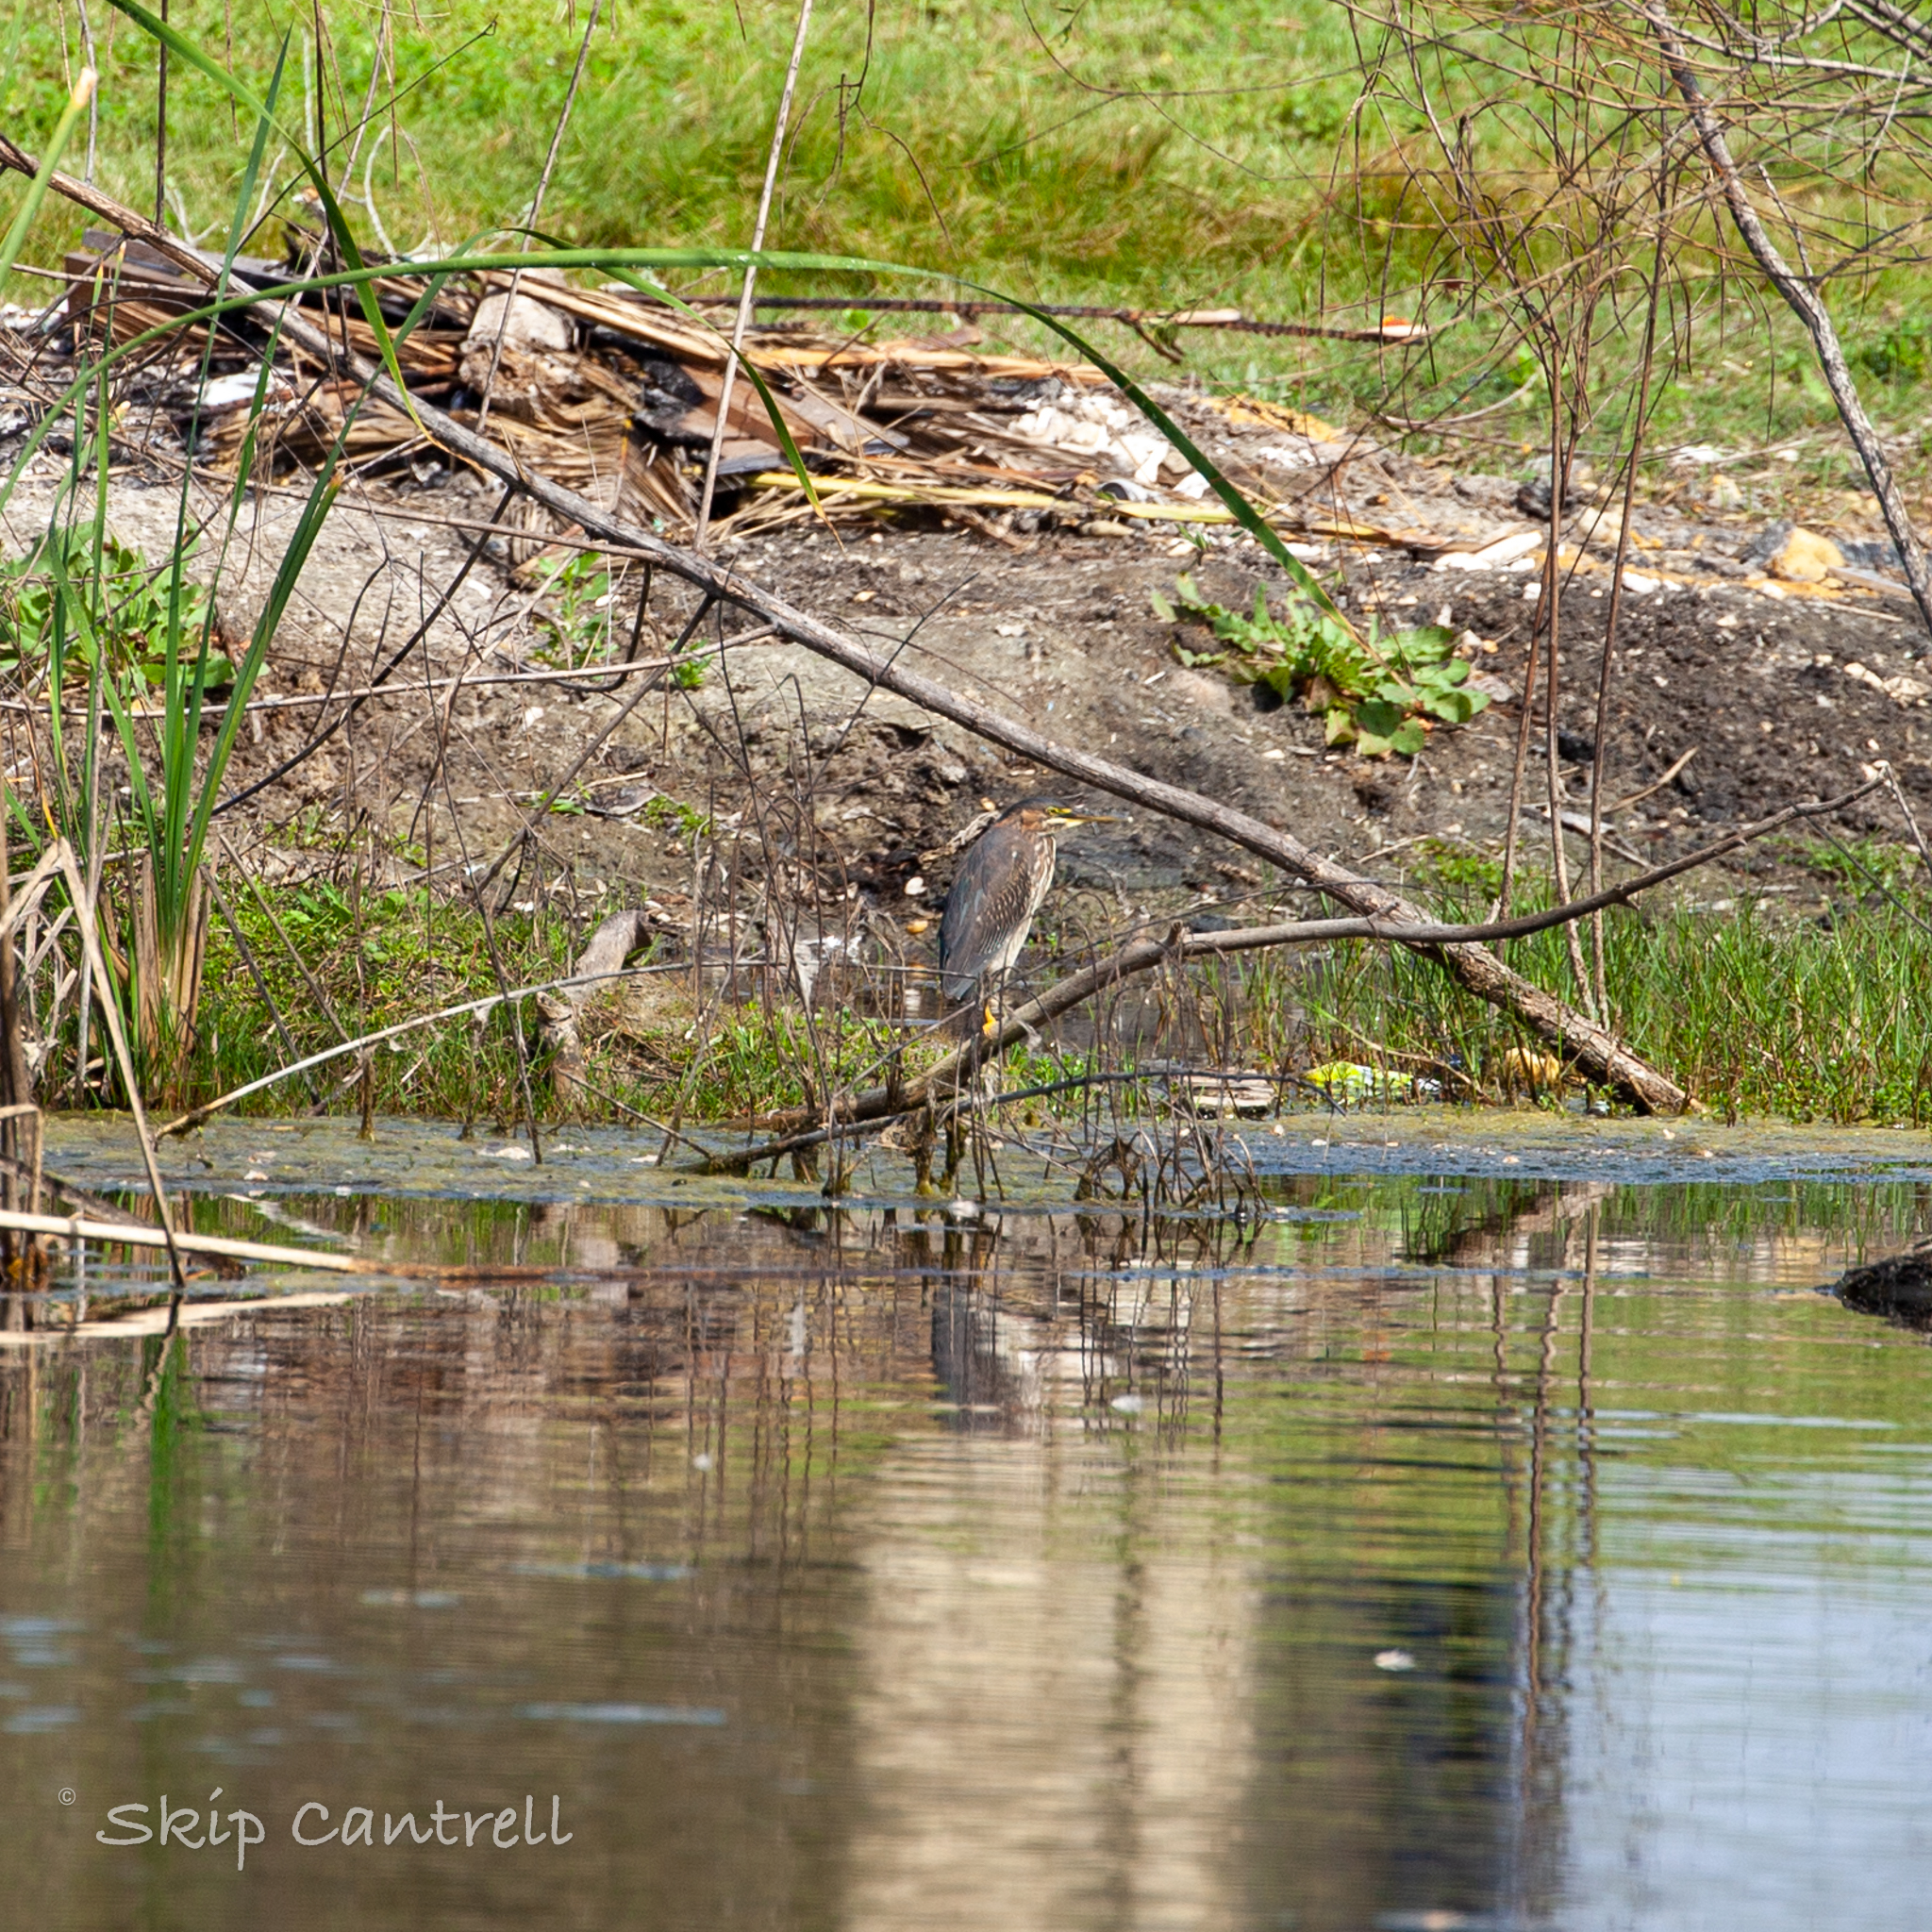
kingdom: Animalia
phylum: Chordata
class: Aves
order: Pelecaniformes
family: Ardeidae
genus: Butorides
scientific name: Butorides virescens
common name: Green heron
